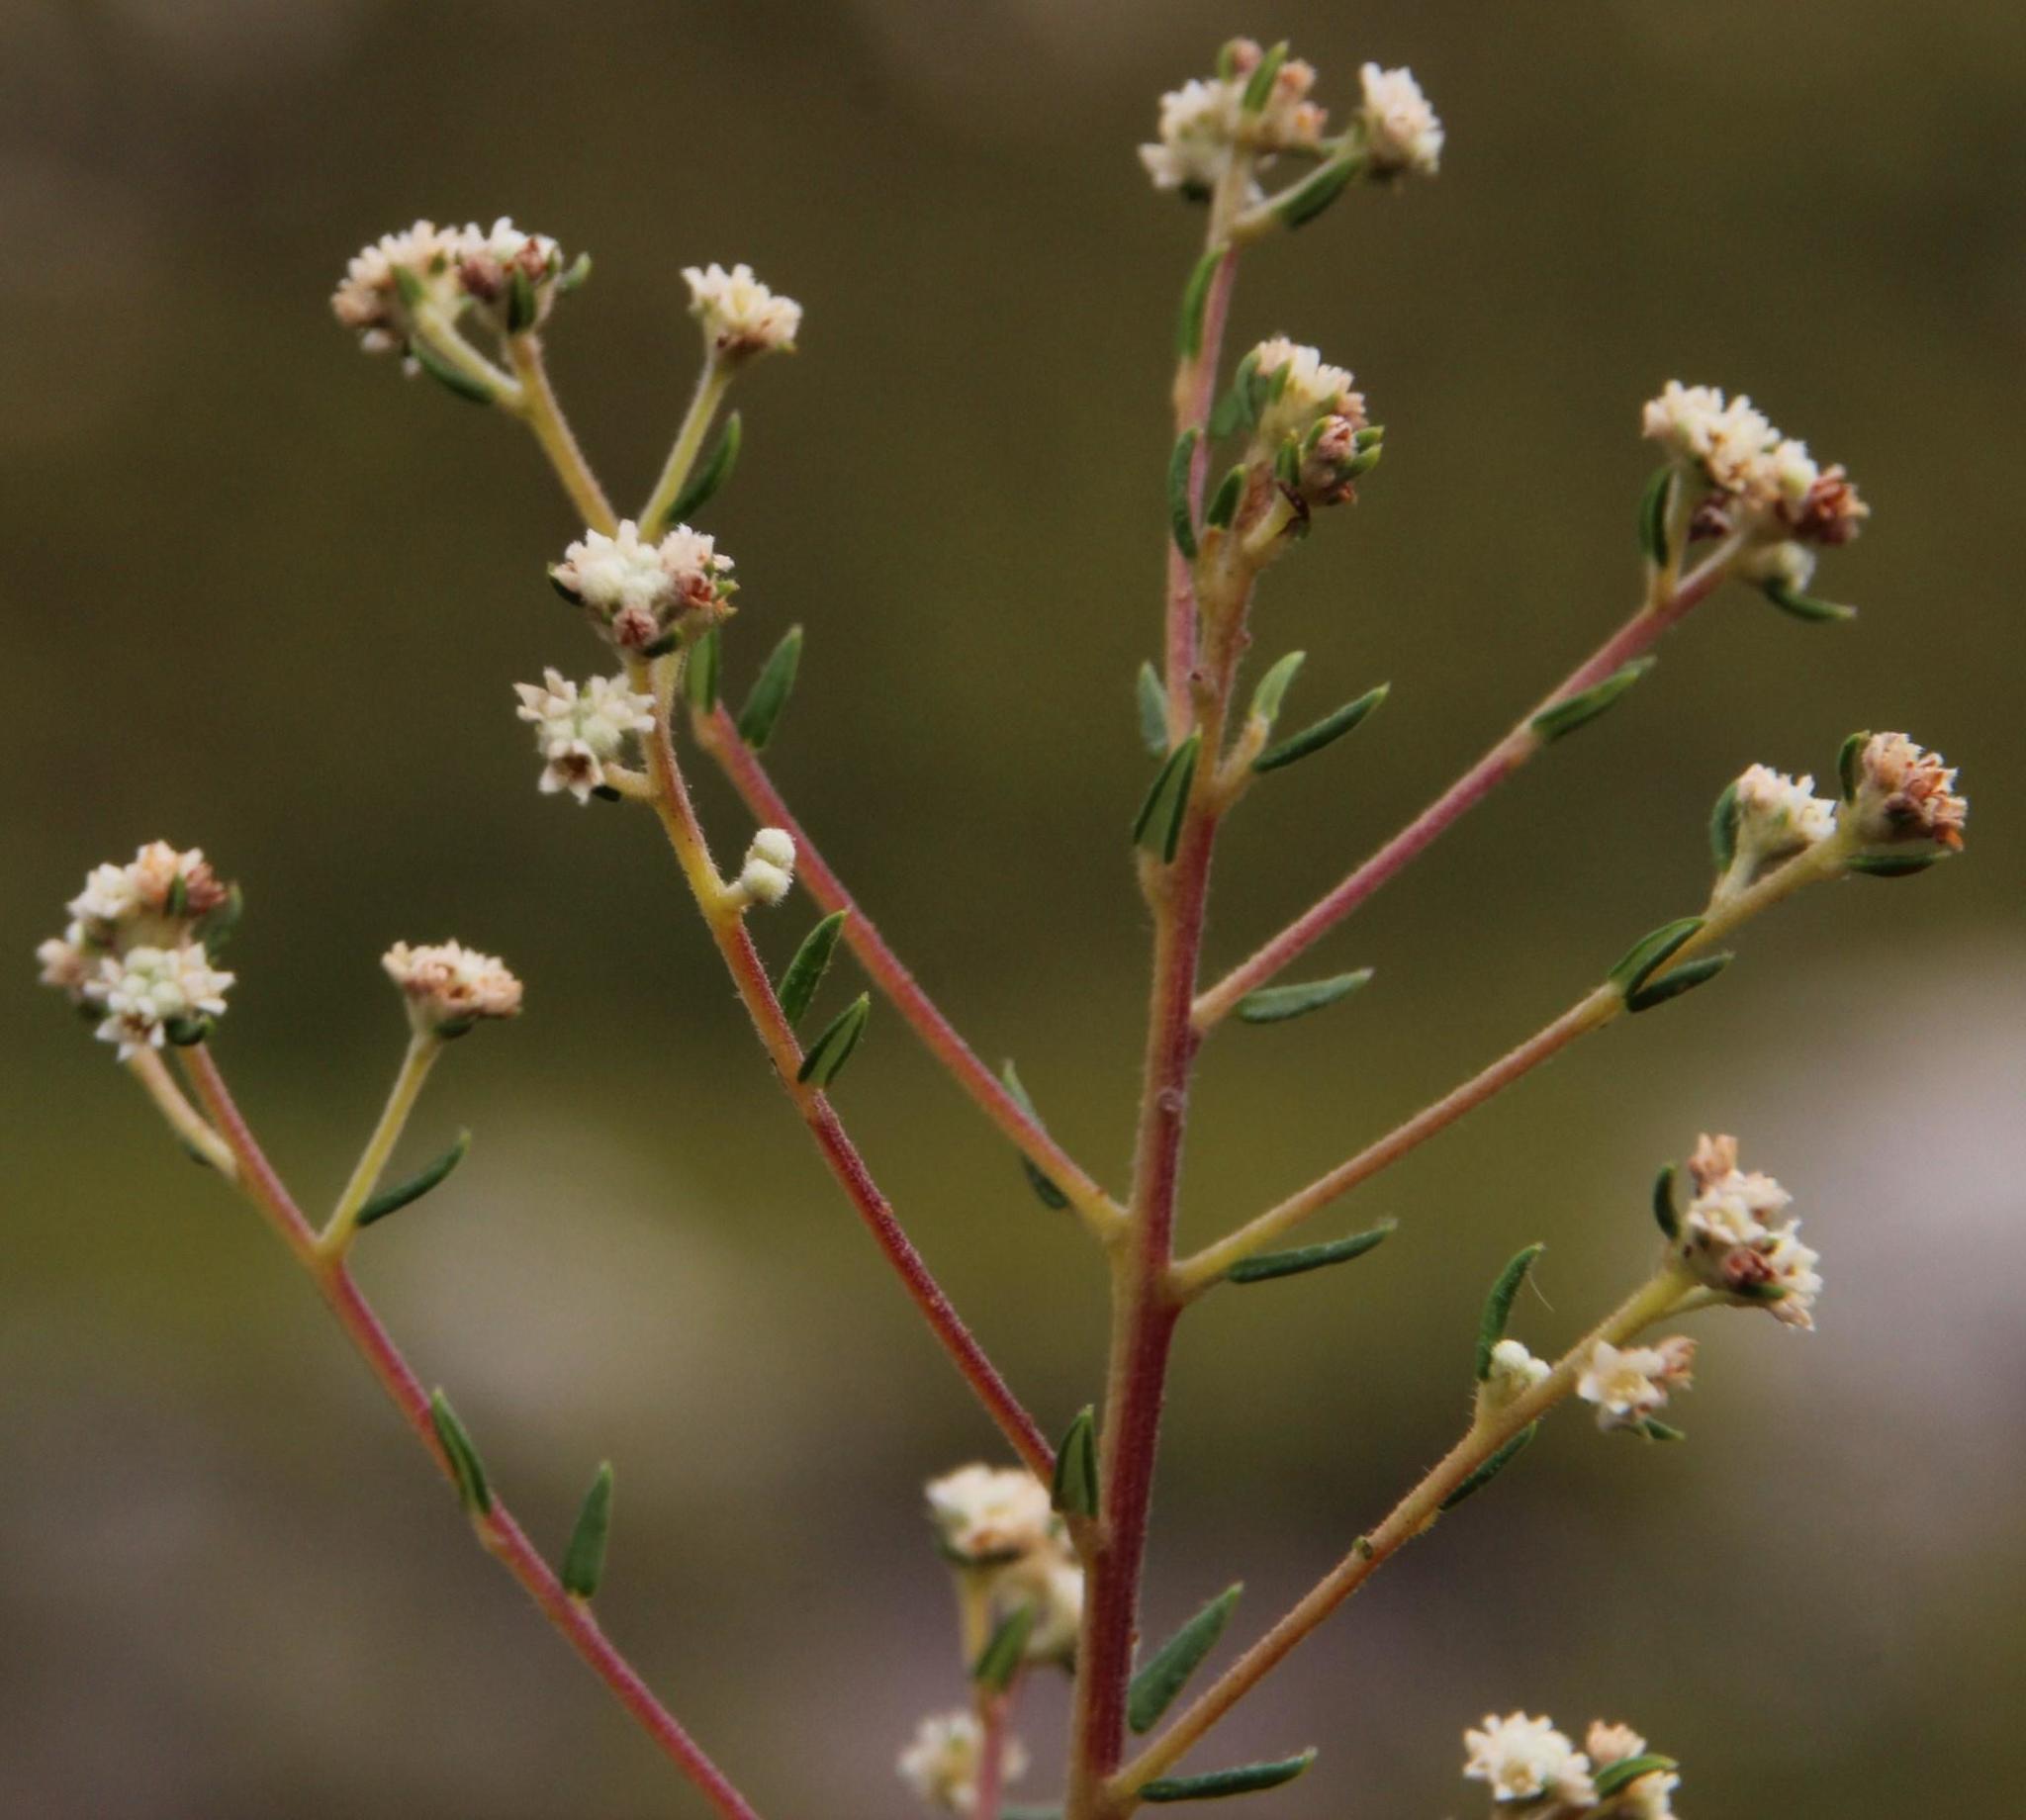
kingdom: Plantae
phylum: Tracheophyta
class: Magnoliopsida
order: Rosales
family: Rhamnaceae
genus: Phylica
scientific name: Phylica brachycephala
